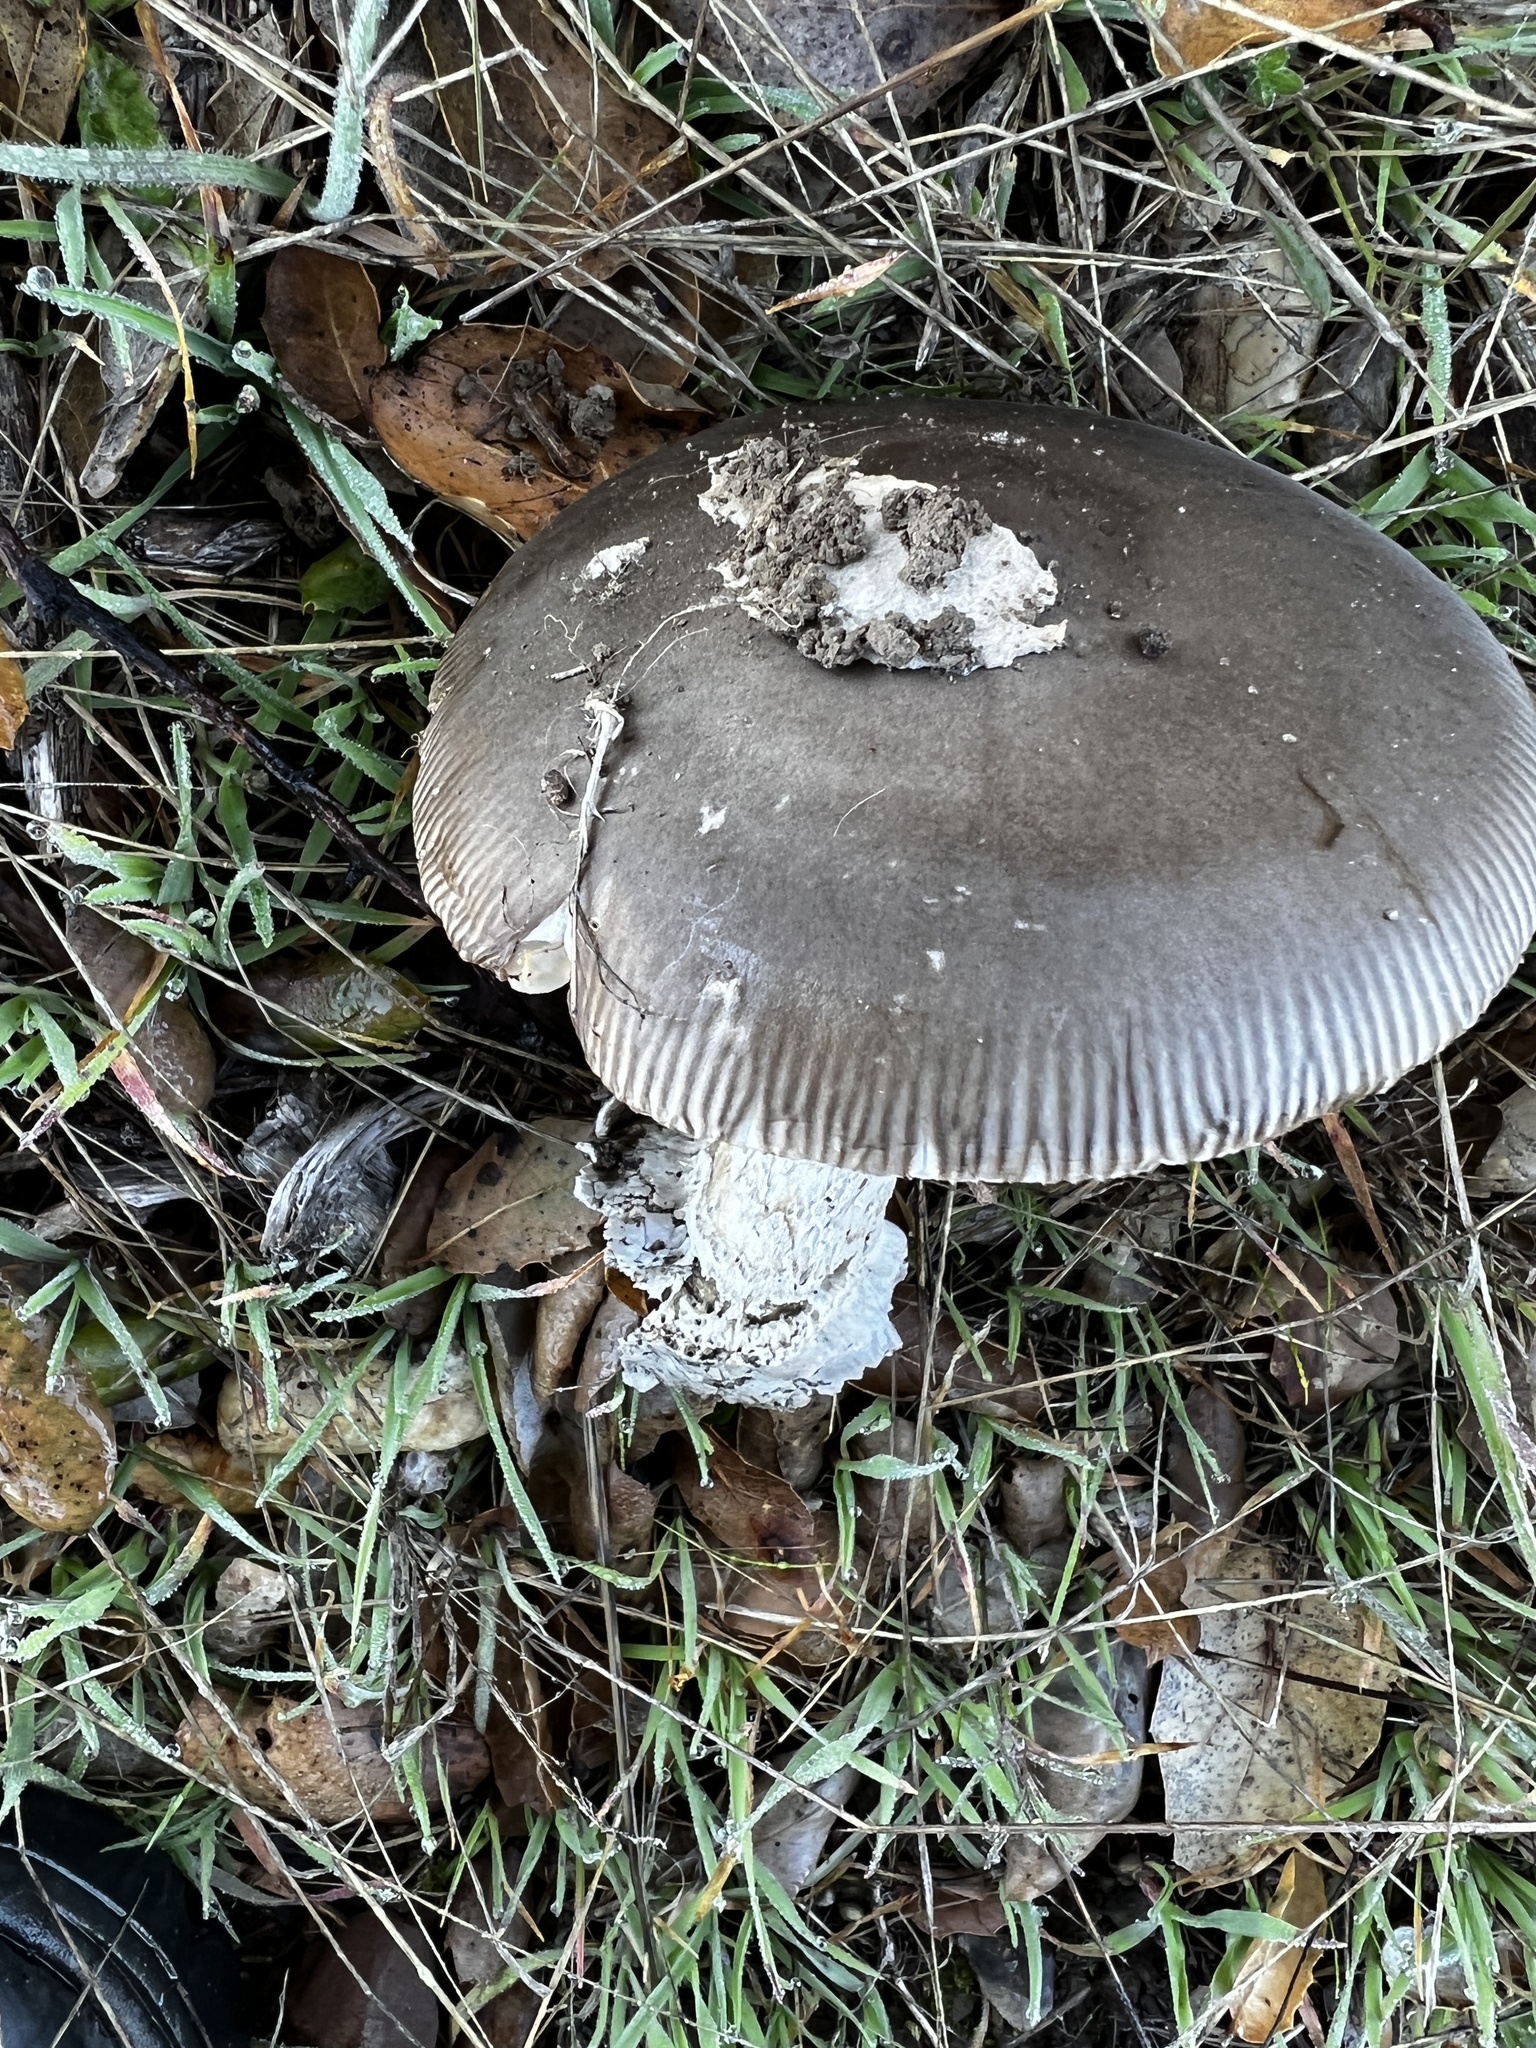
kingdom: Fungi
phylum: Basidiomycota
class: Agaricomycetes
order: Agaricales
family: Amanitaceae
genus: Amanita
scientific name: Amanita constricta
